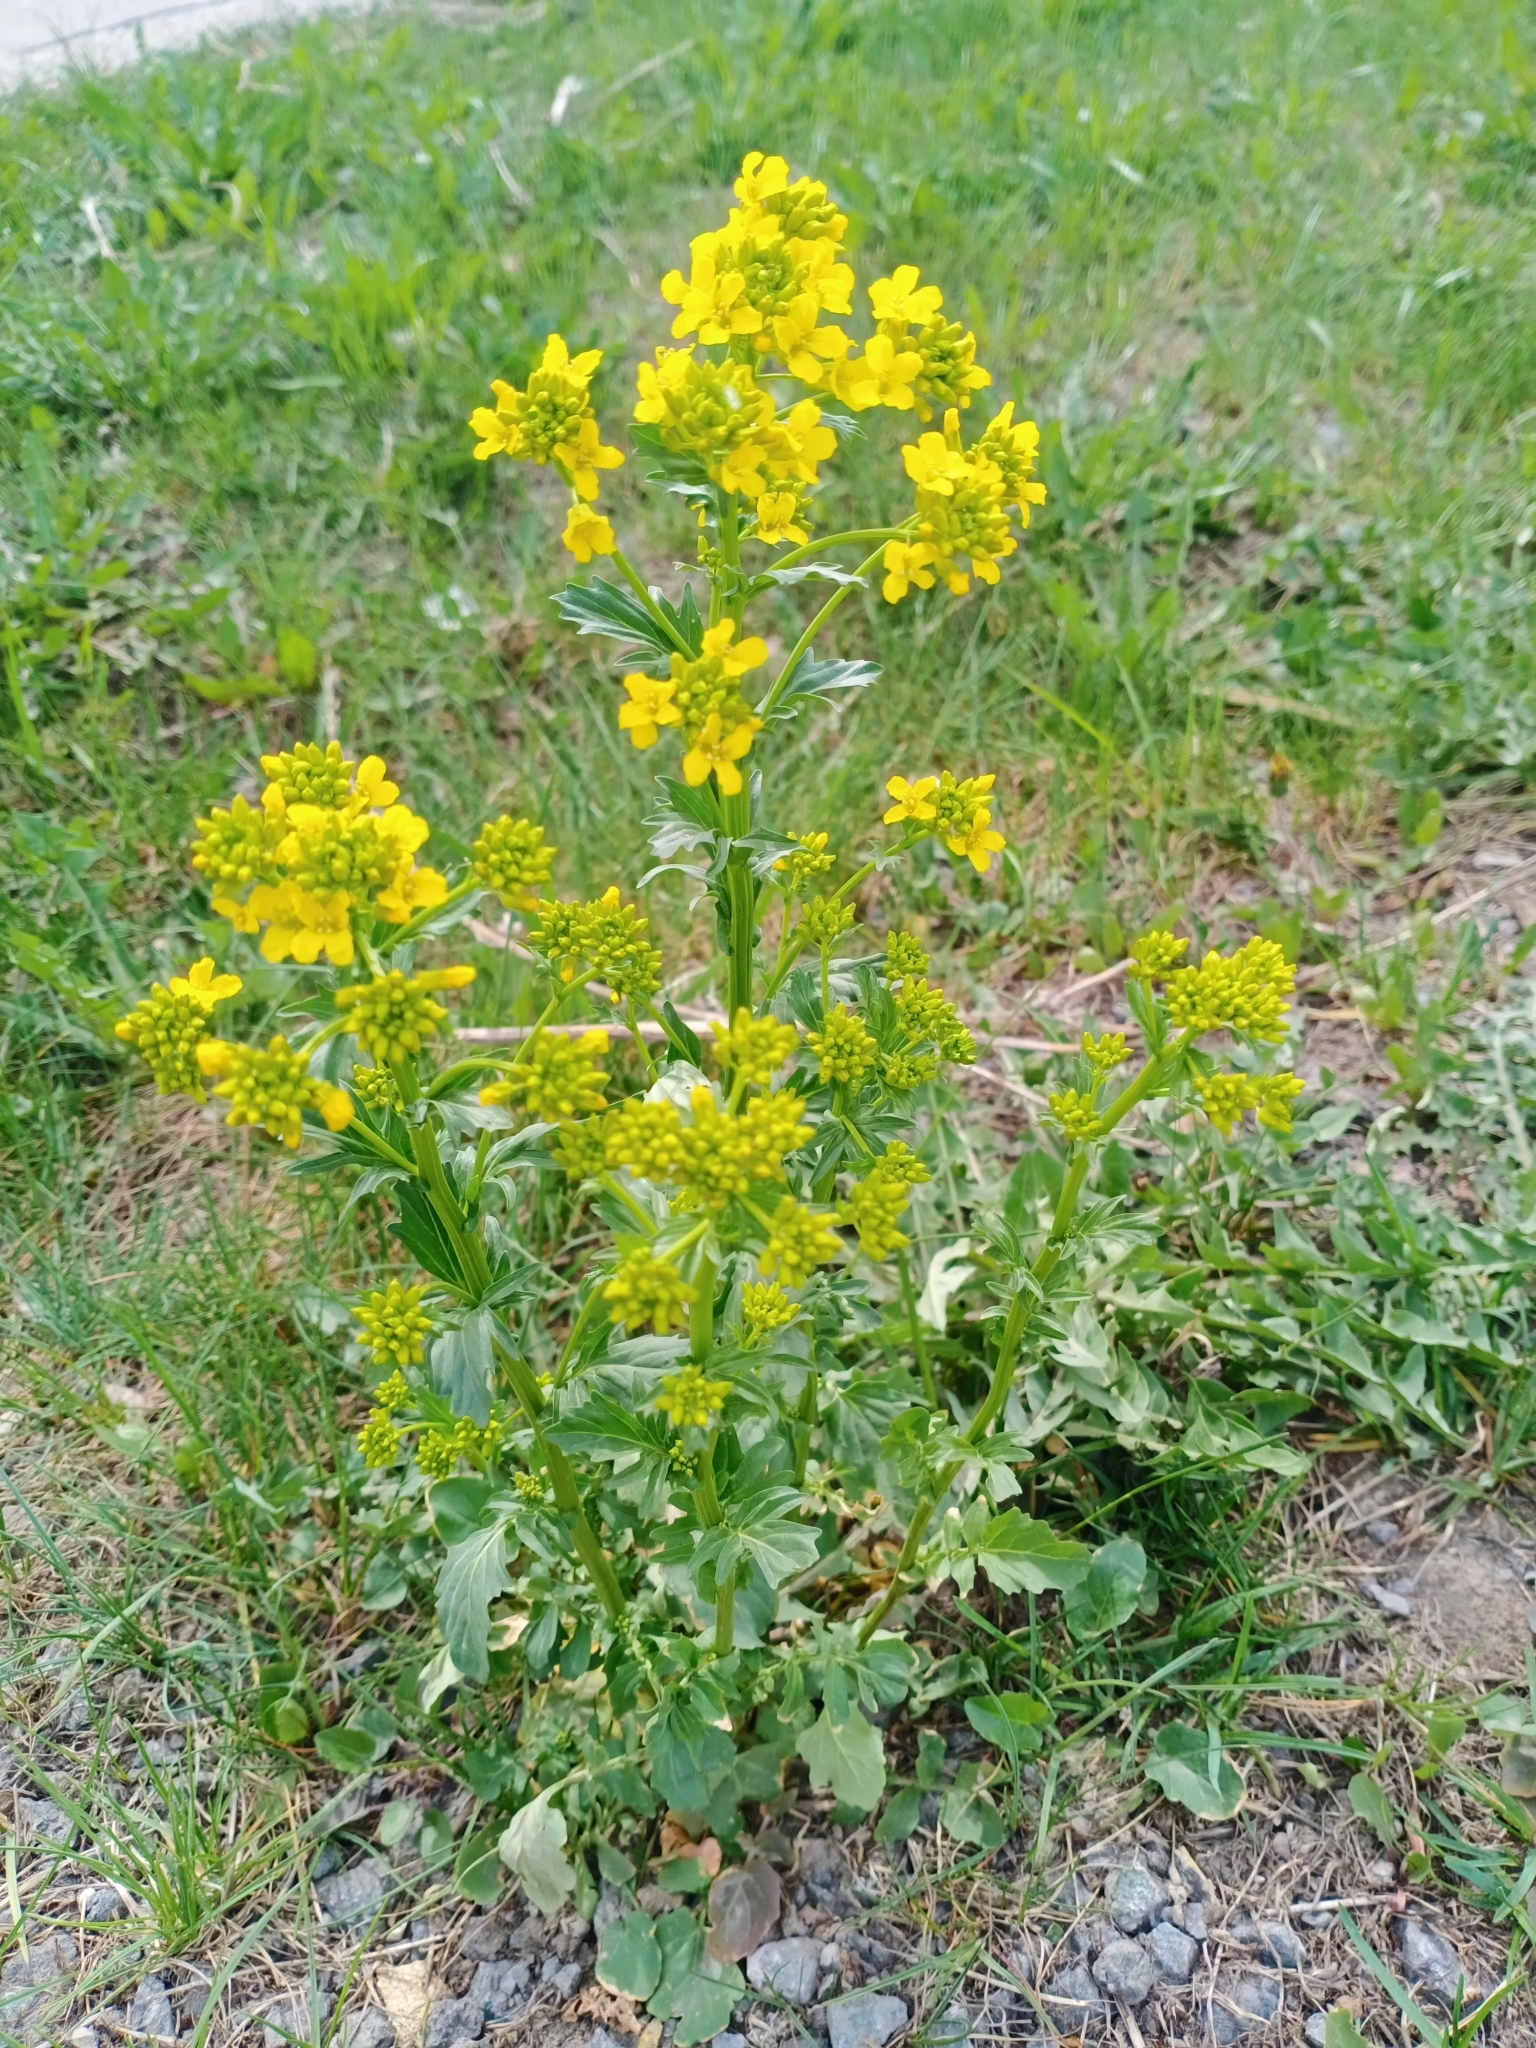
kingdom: Plantae
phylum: Tracheophyta
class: Magnoliopsida
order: Brassicales
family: Brassicaceae
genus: Barbarea
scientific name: Barbarea vulgaris
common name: Cressy-greens
